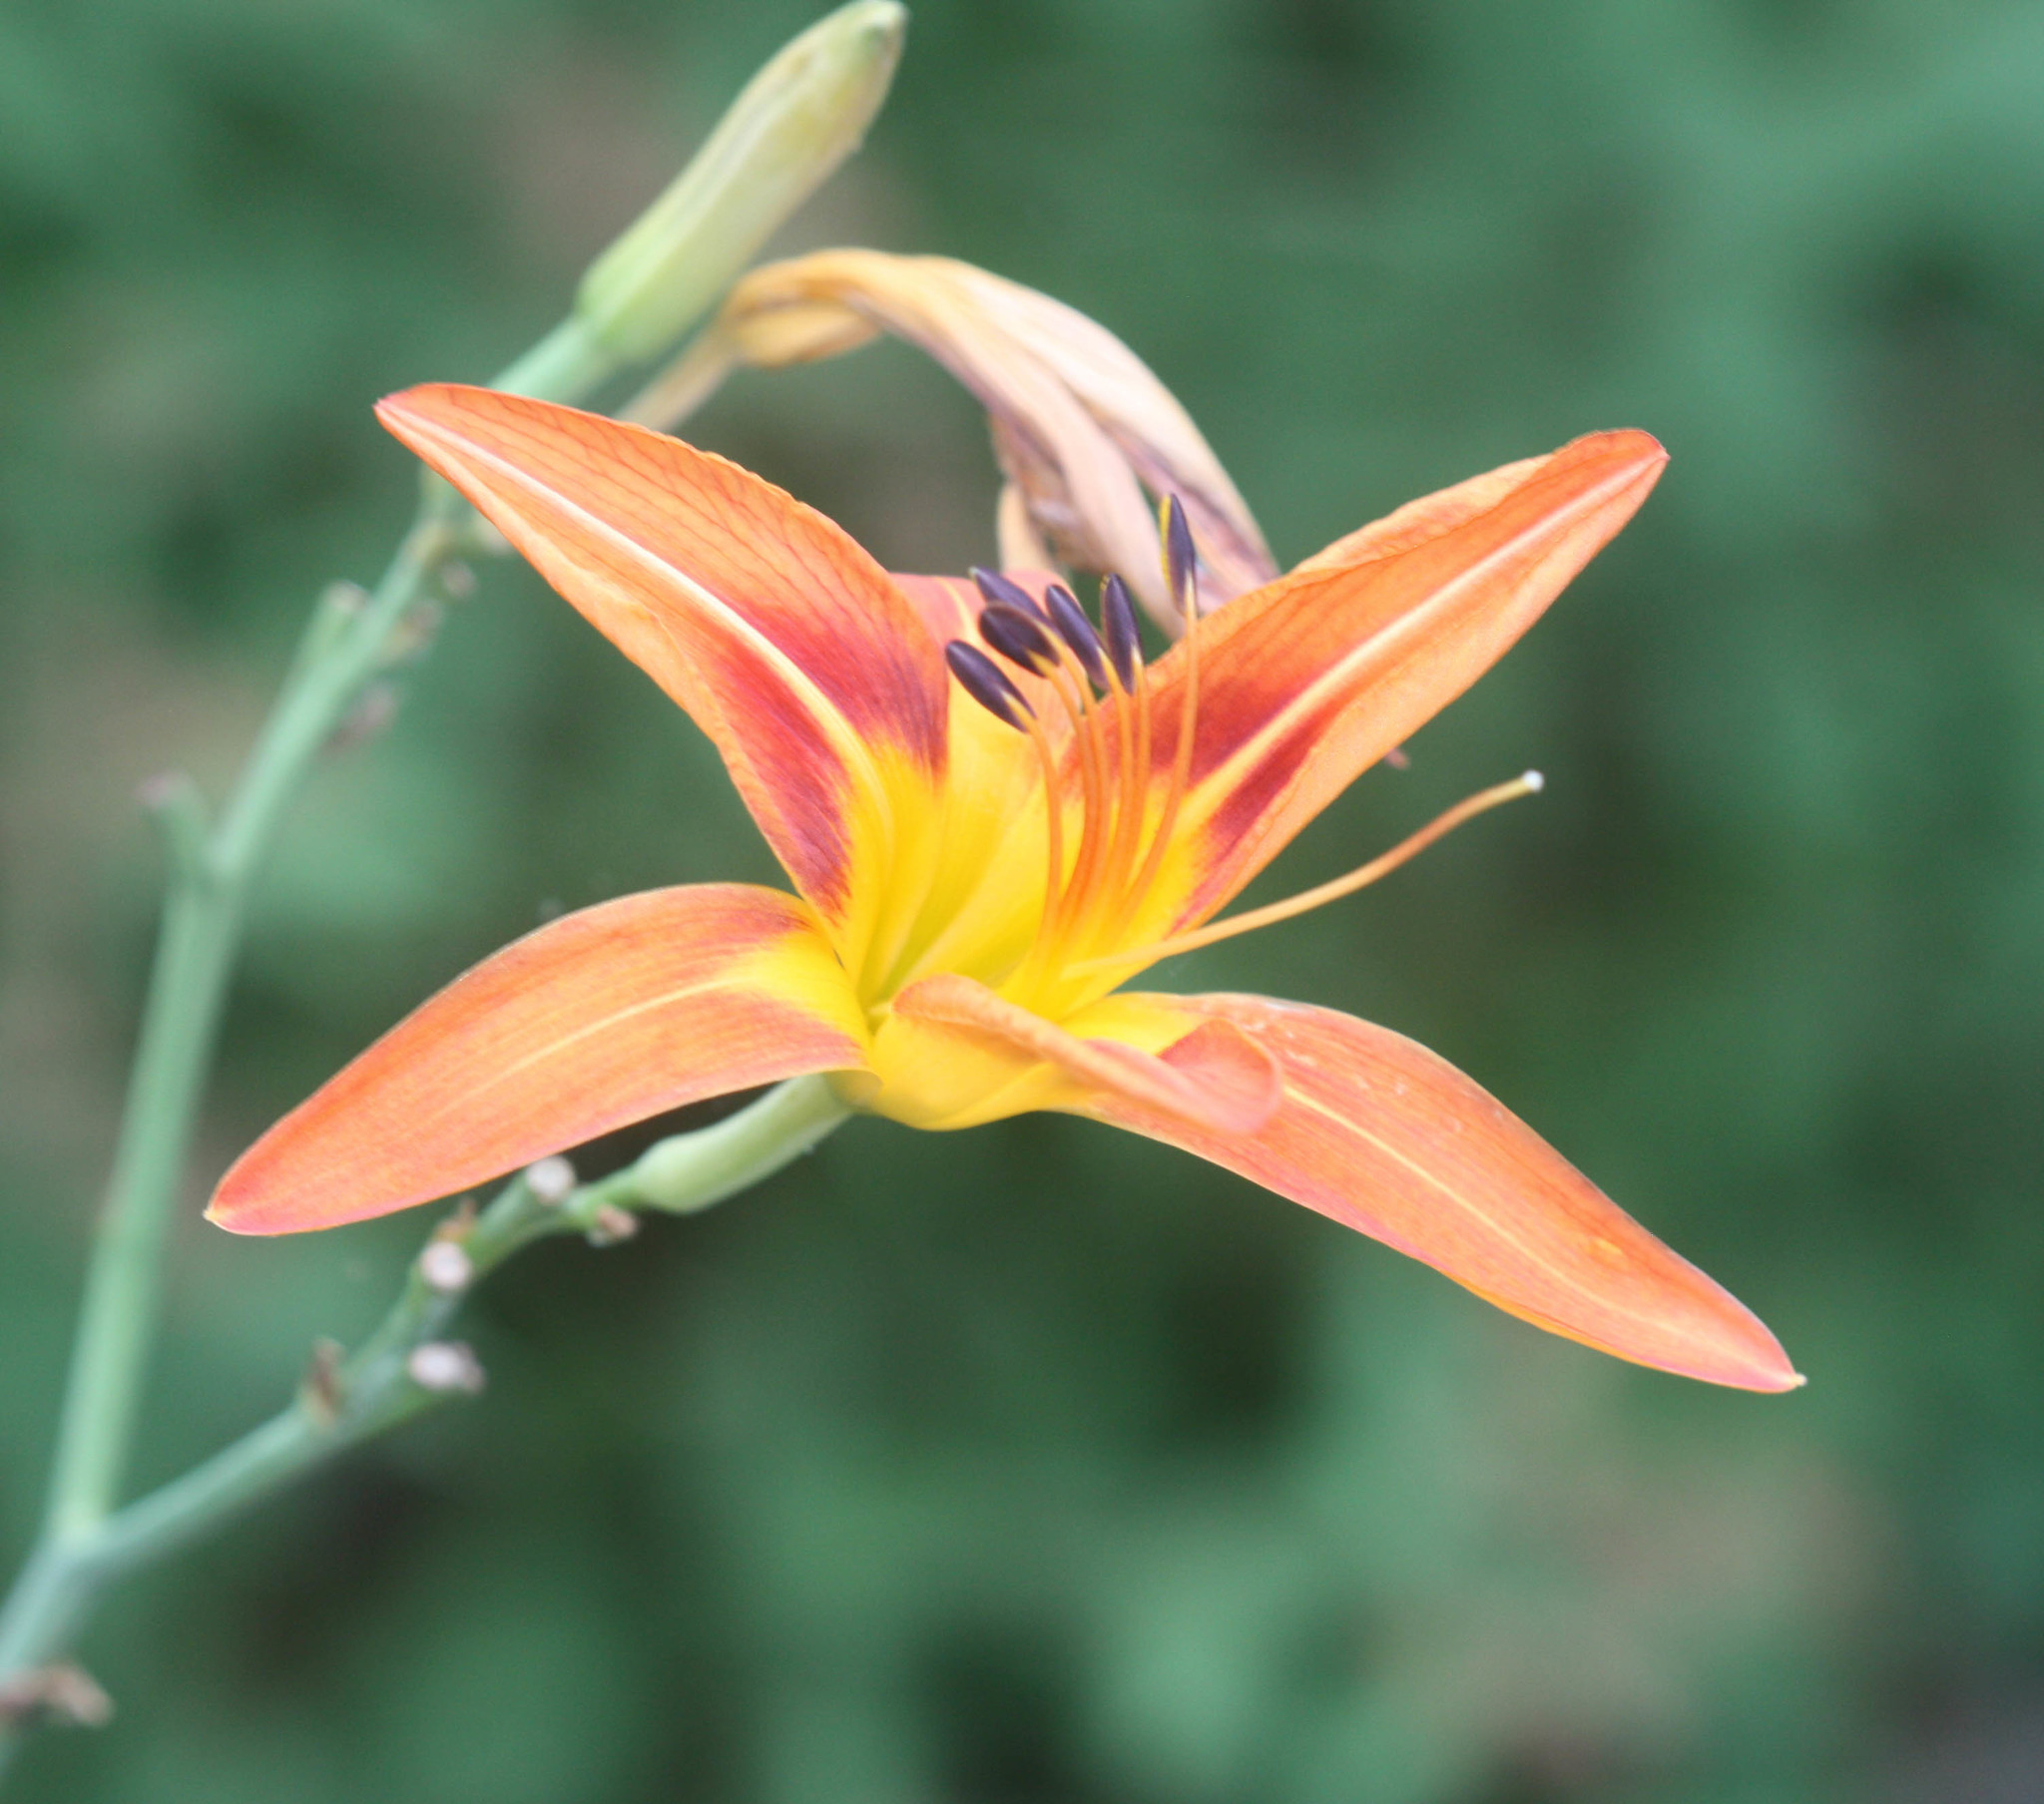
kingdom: Plantae
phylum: Tracheophyta
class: Liliopsida
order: Asparagales
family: Asphodelaceae
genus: Hemerocallis
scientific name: Hemerocallis fulva
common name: Orange day-lily
